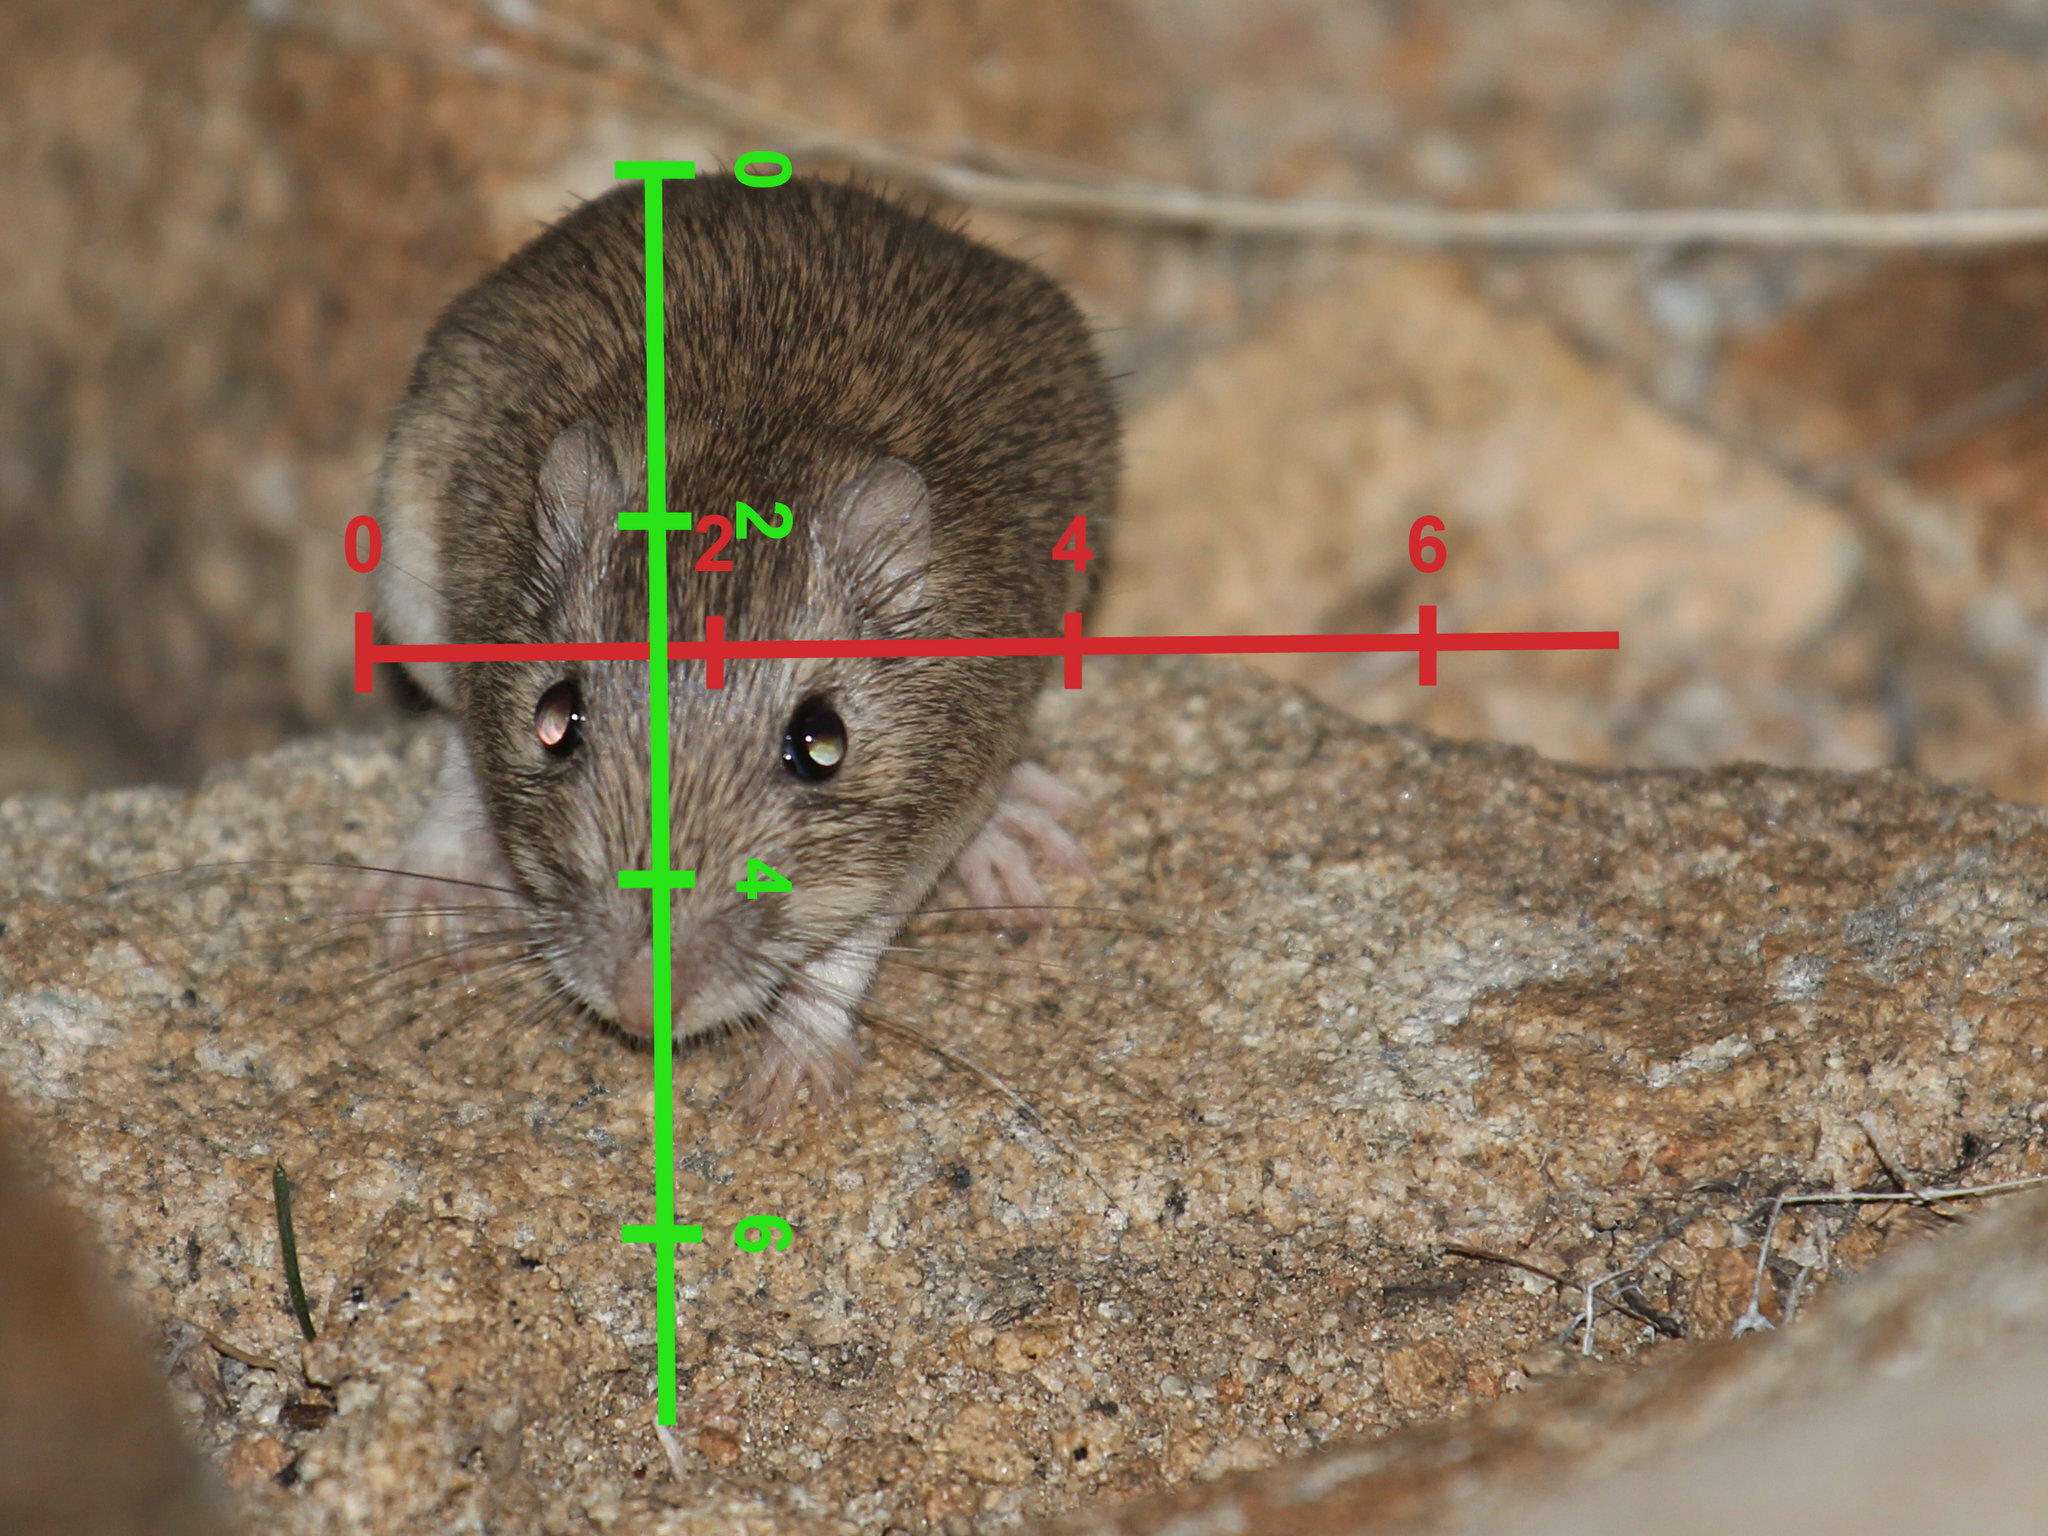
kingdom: Animalia
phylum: Chordata
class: Mammalia
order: Rodentia
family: Heteromyidae
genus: Chaetodipus
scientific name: Chaetodipus fallax
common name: San diego pocket mouse
